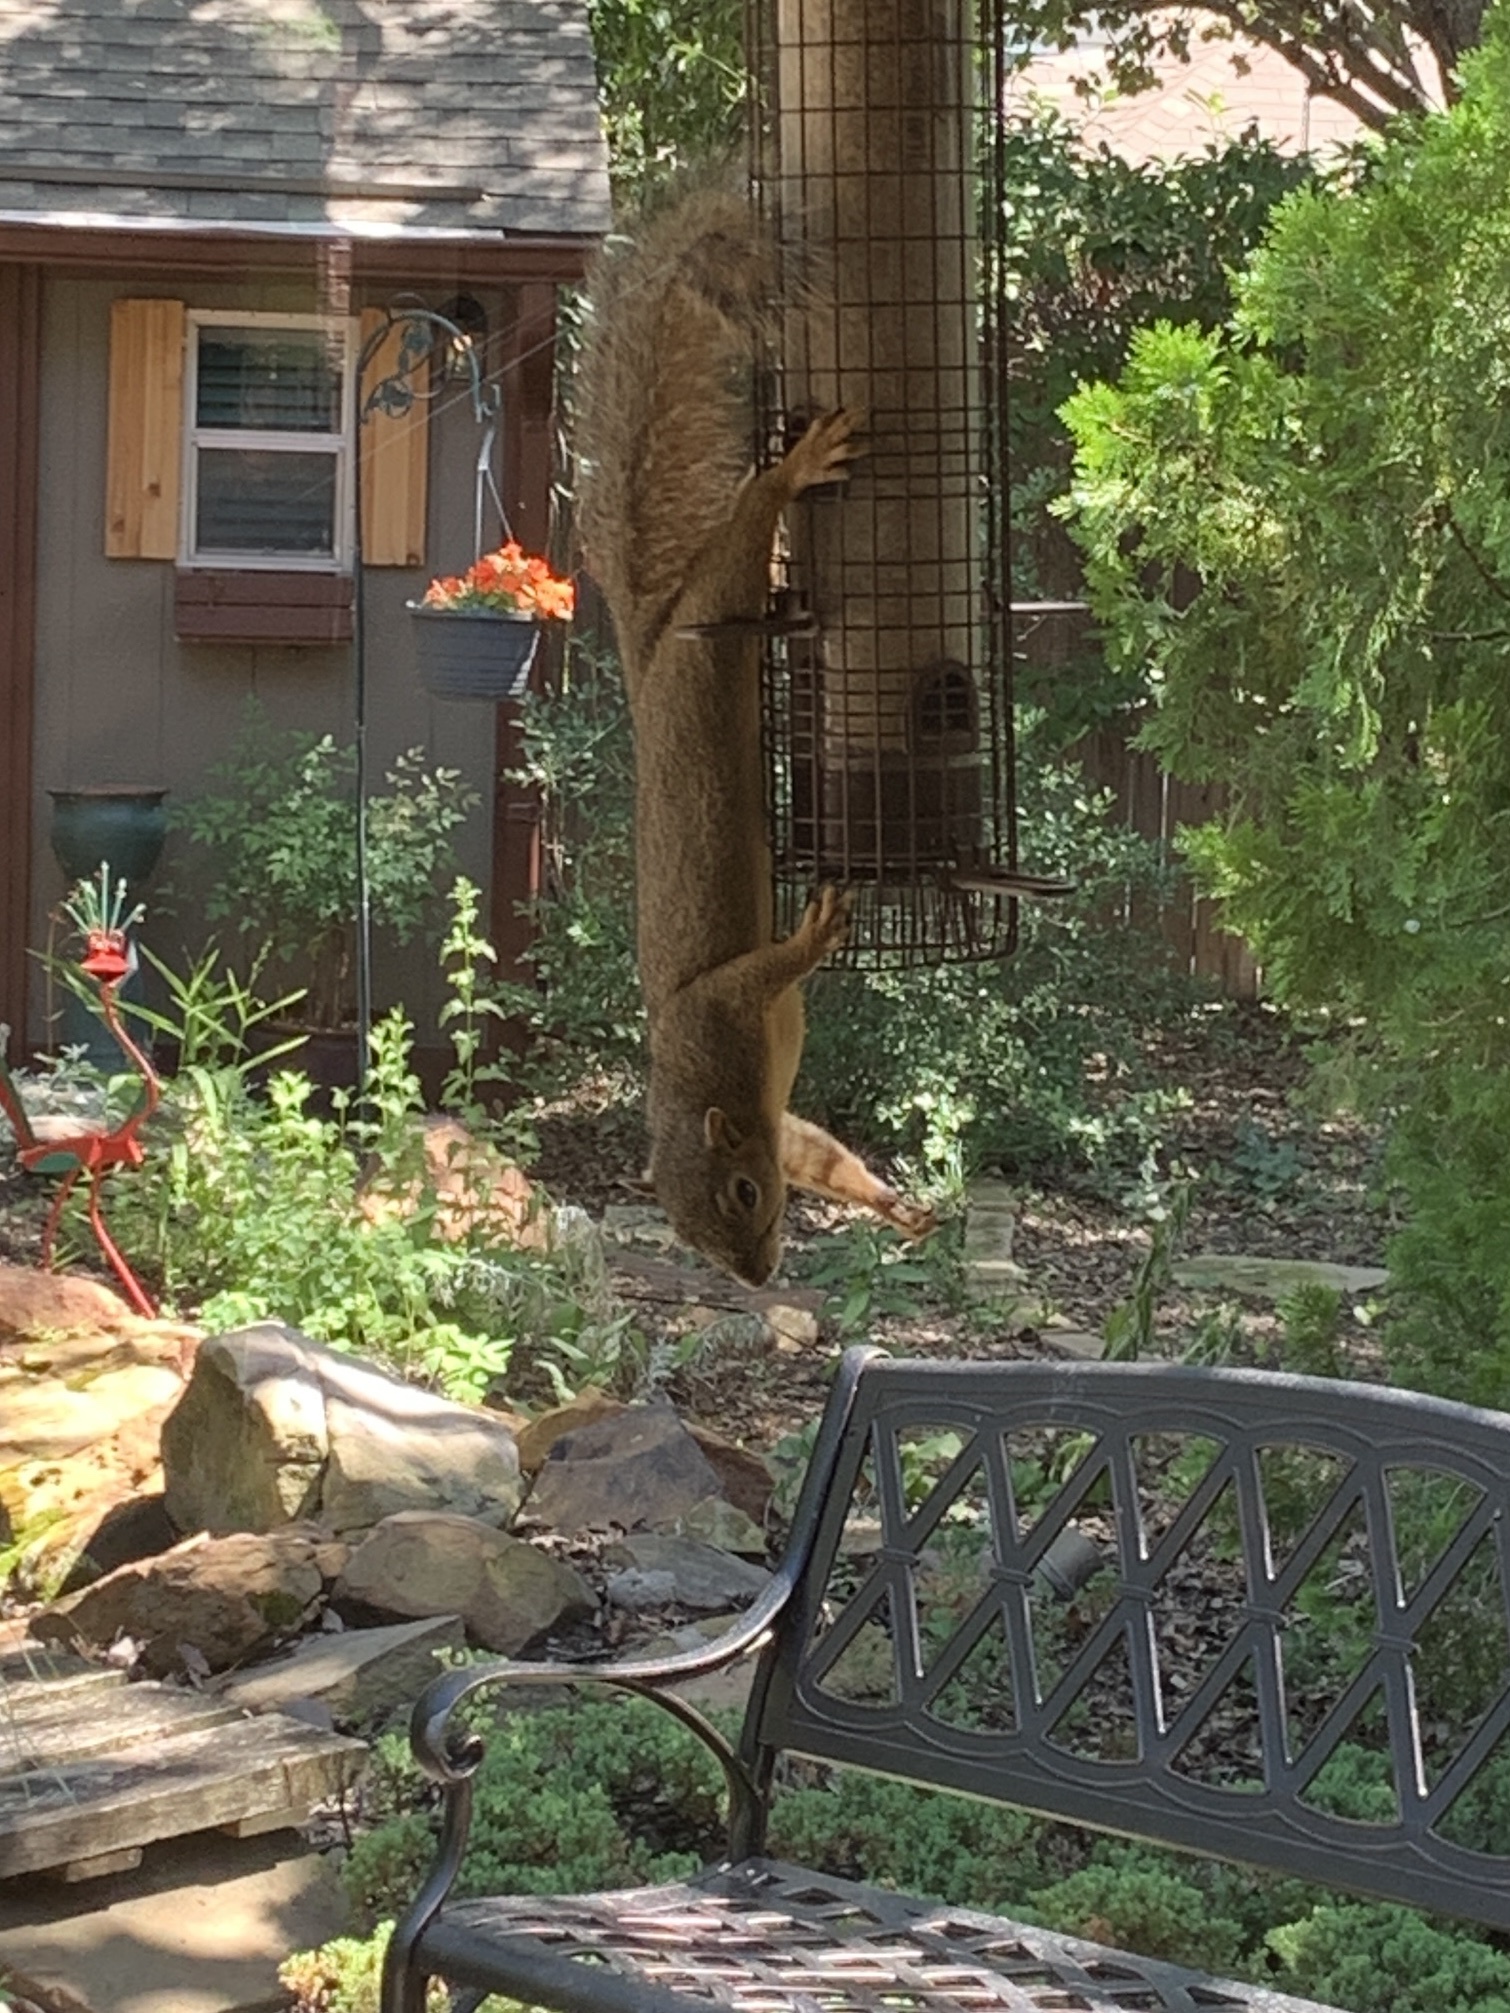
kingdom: Animalia
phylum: Chordata
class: Mammalia
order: Rodentia
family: Sciuridae
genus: Sciurus
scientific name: Sciurus niger
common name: Fox squirrel
